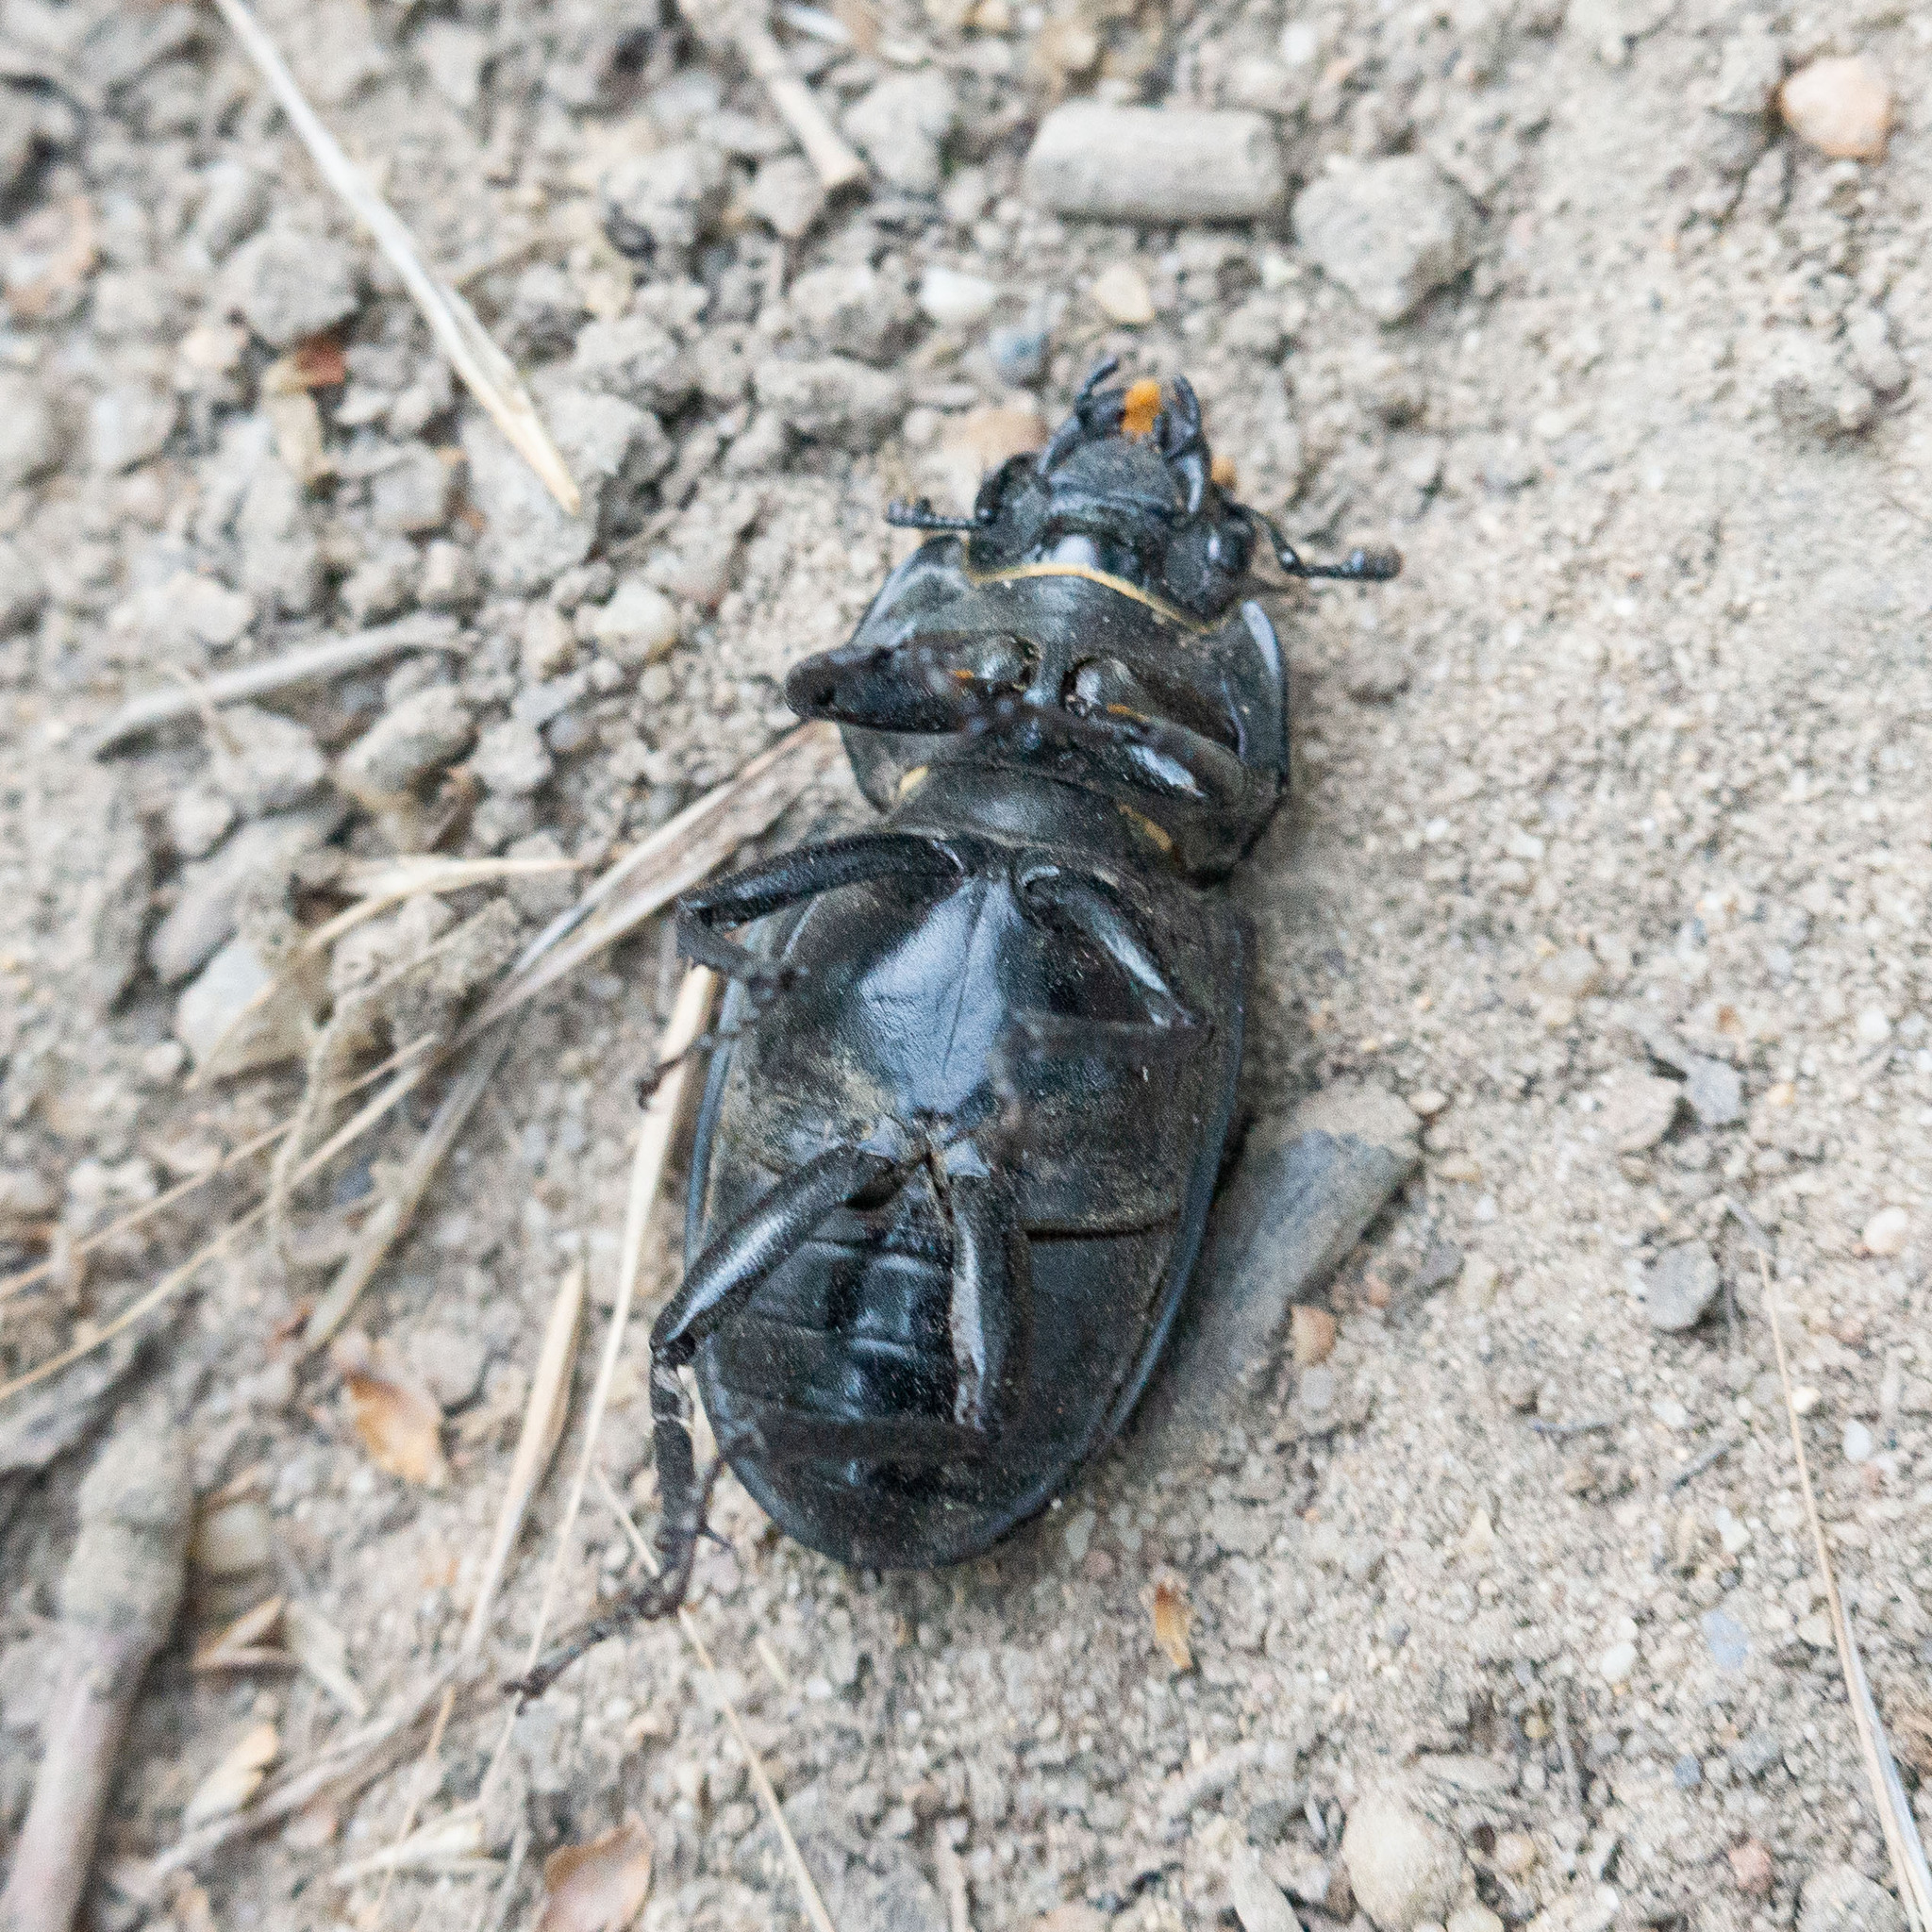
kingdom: Animalia
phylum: Arthropoda
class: Insecta
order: Coleoptera
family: Lucanidae
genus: Lucanus
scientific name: Lucanus cervus
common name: Stag beetle
